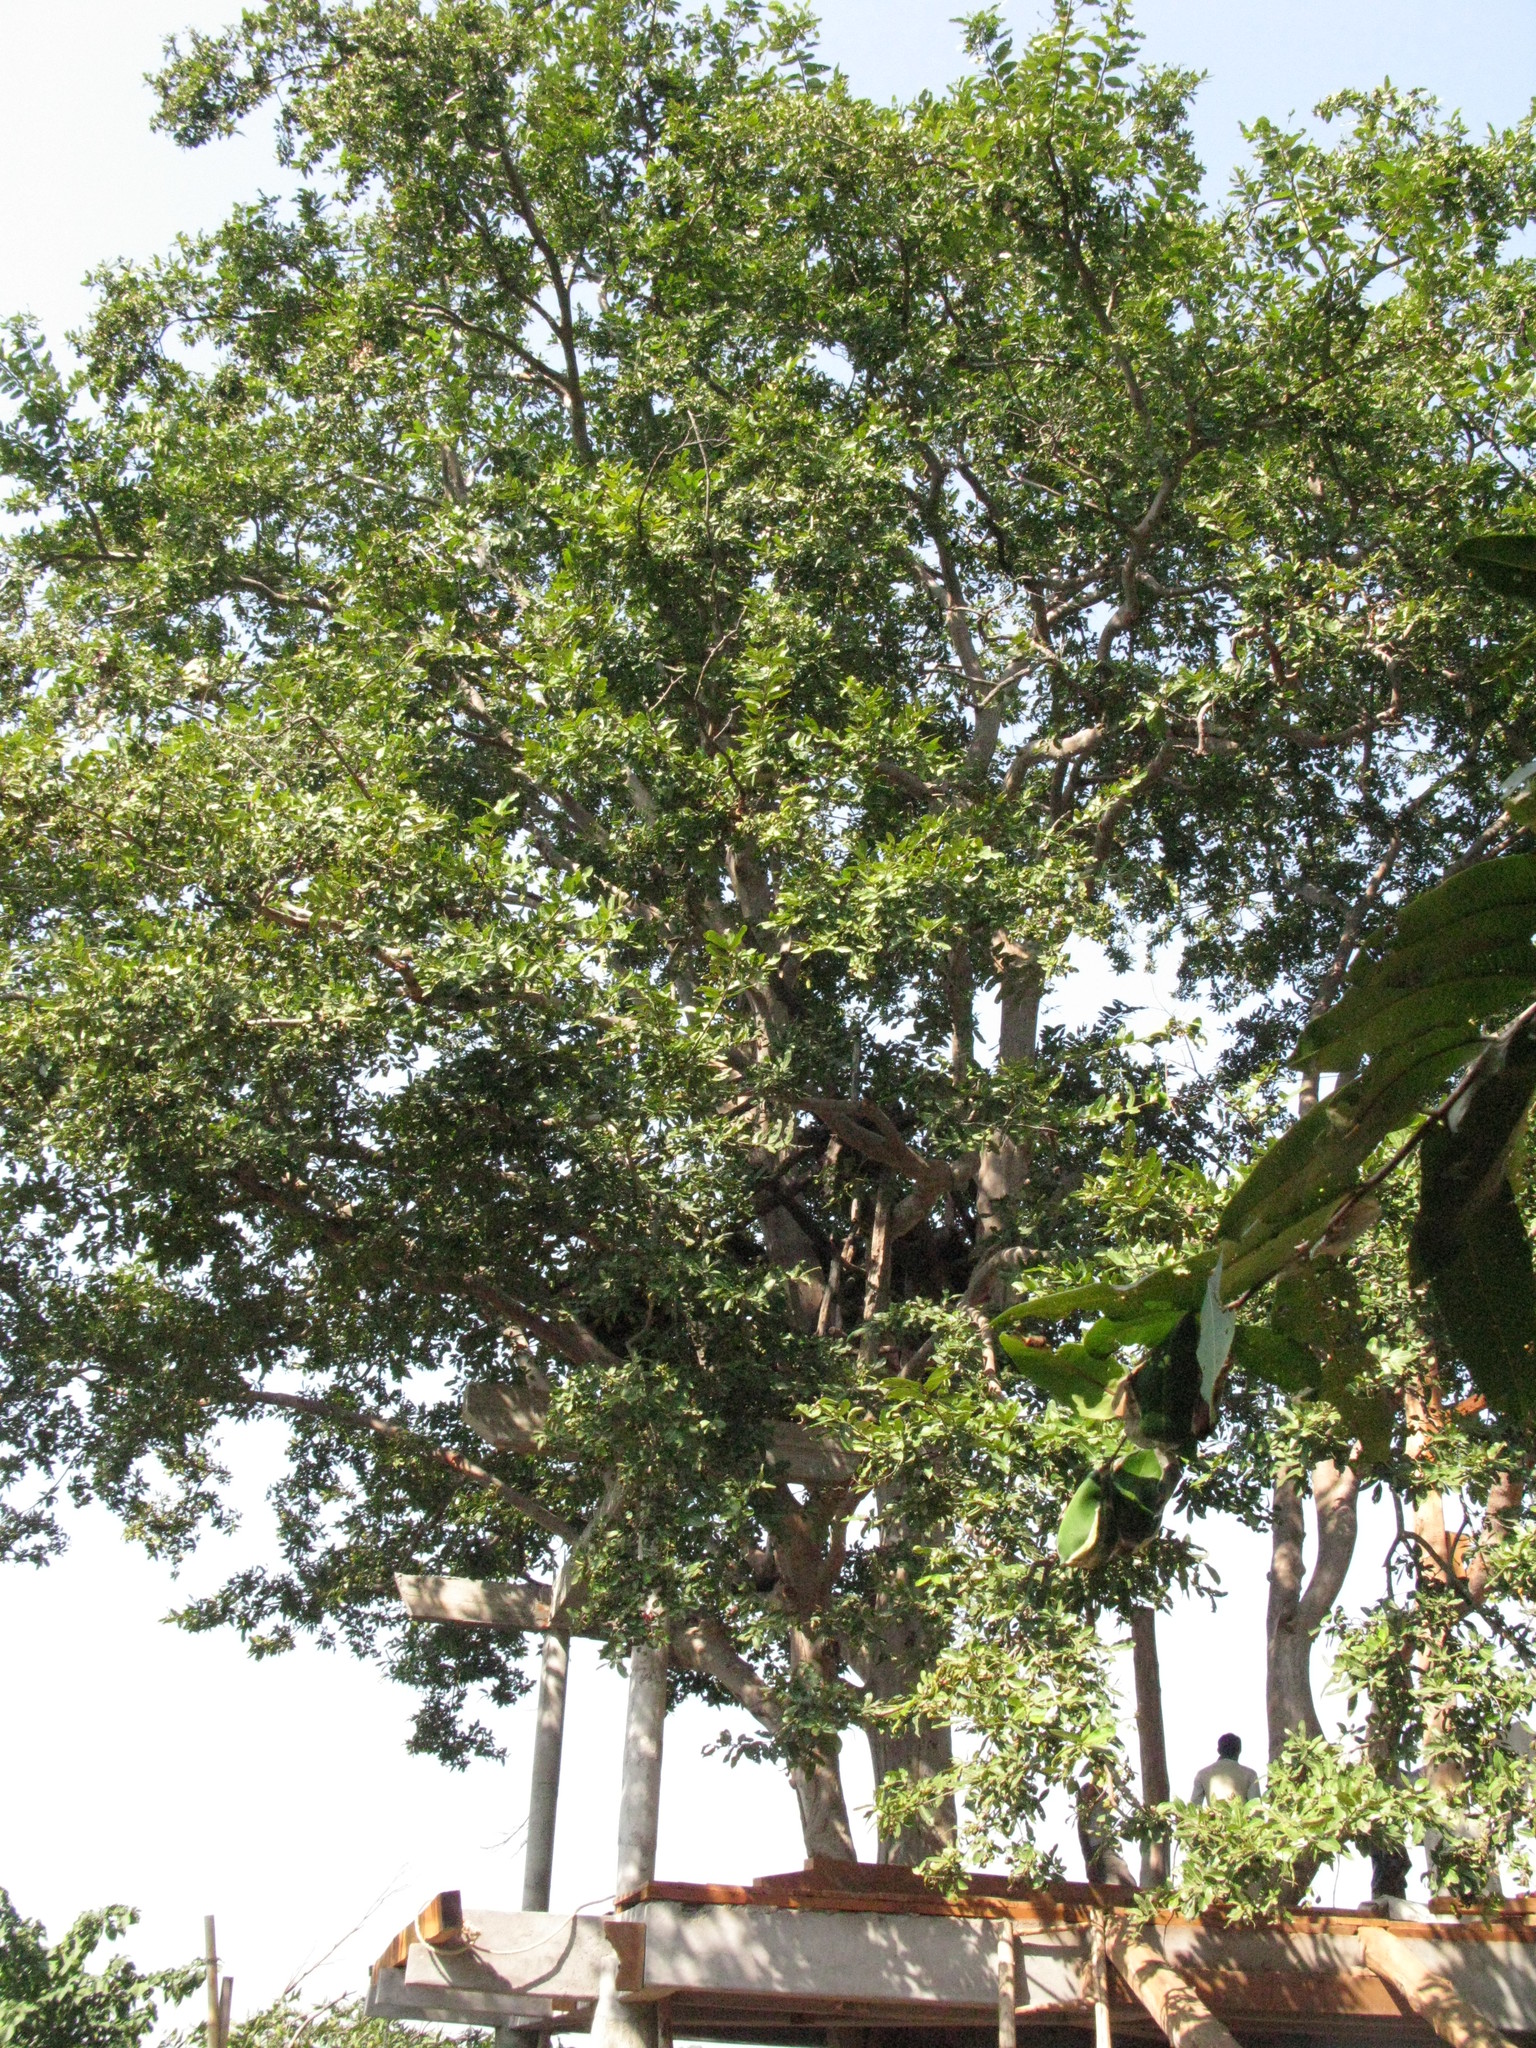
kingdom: Plantae
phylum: Tracheophyta
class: Magnoliopsida
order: Myrtales
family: Combretaceae
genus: Terminalia
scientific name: Terminalia arjuna
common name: Arjun
